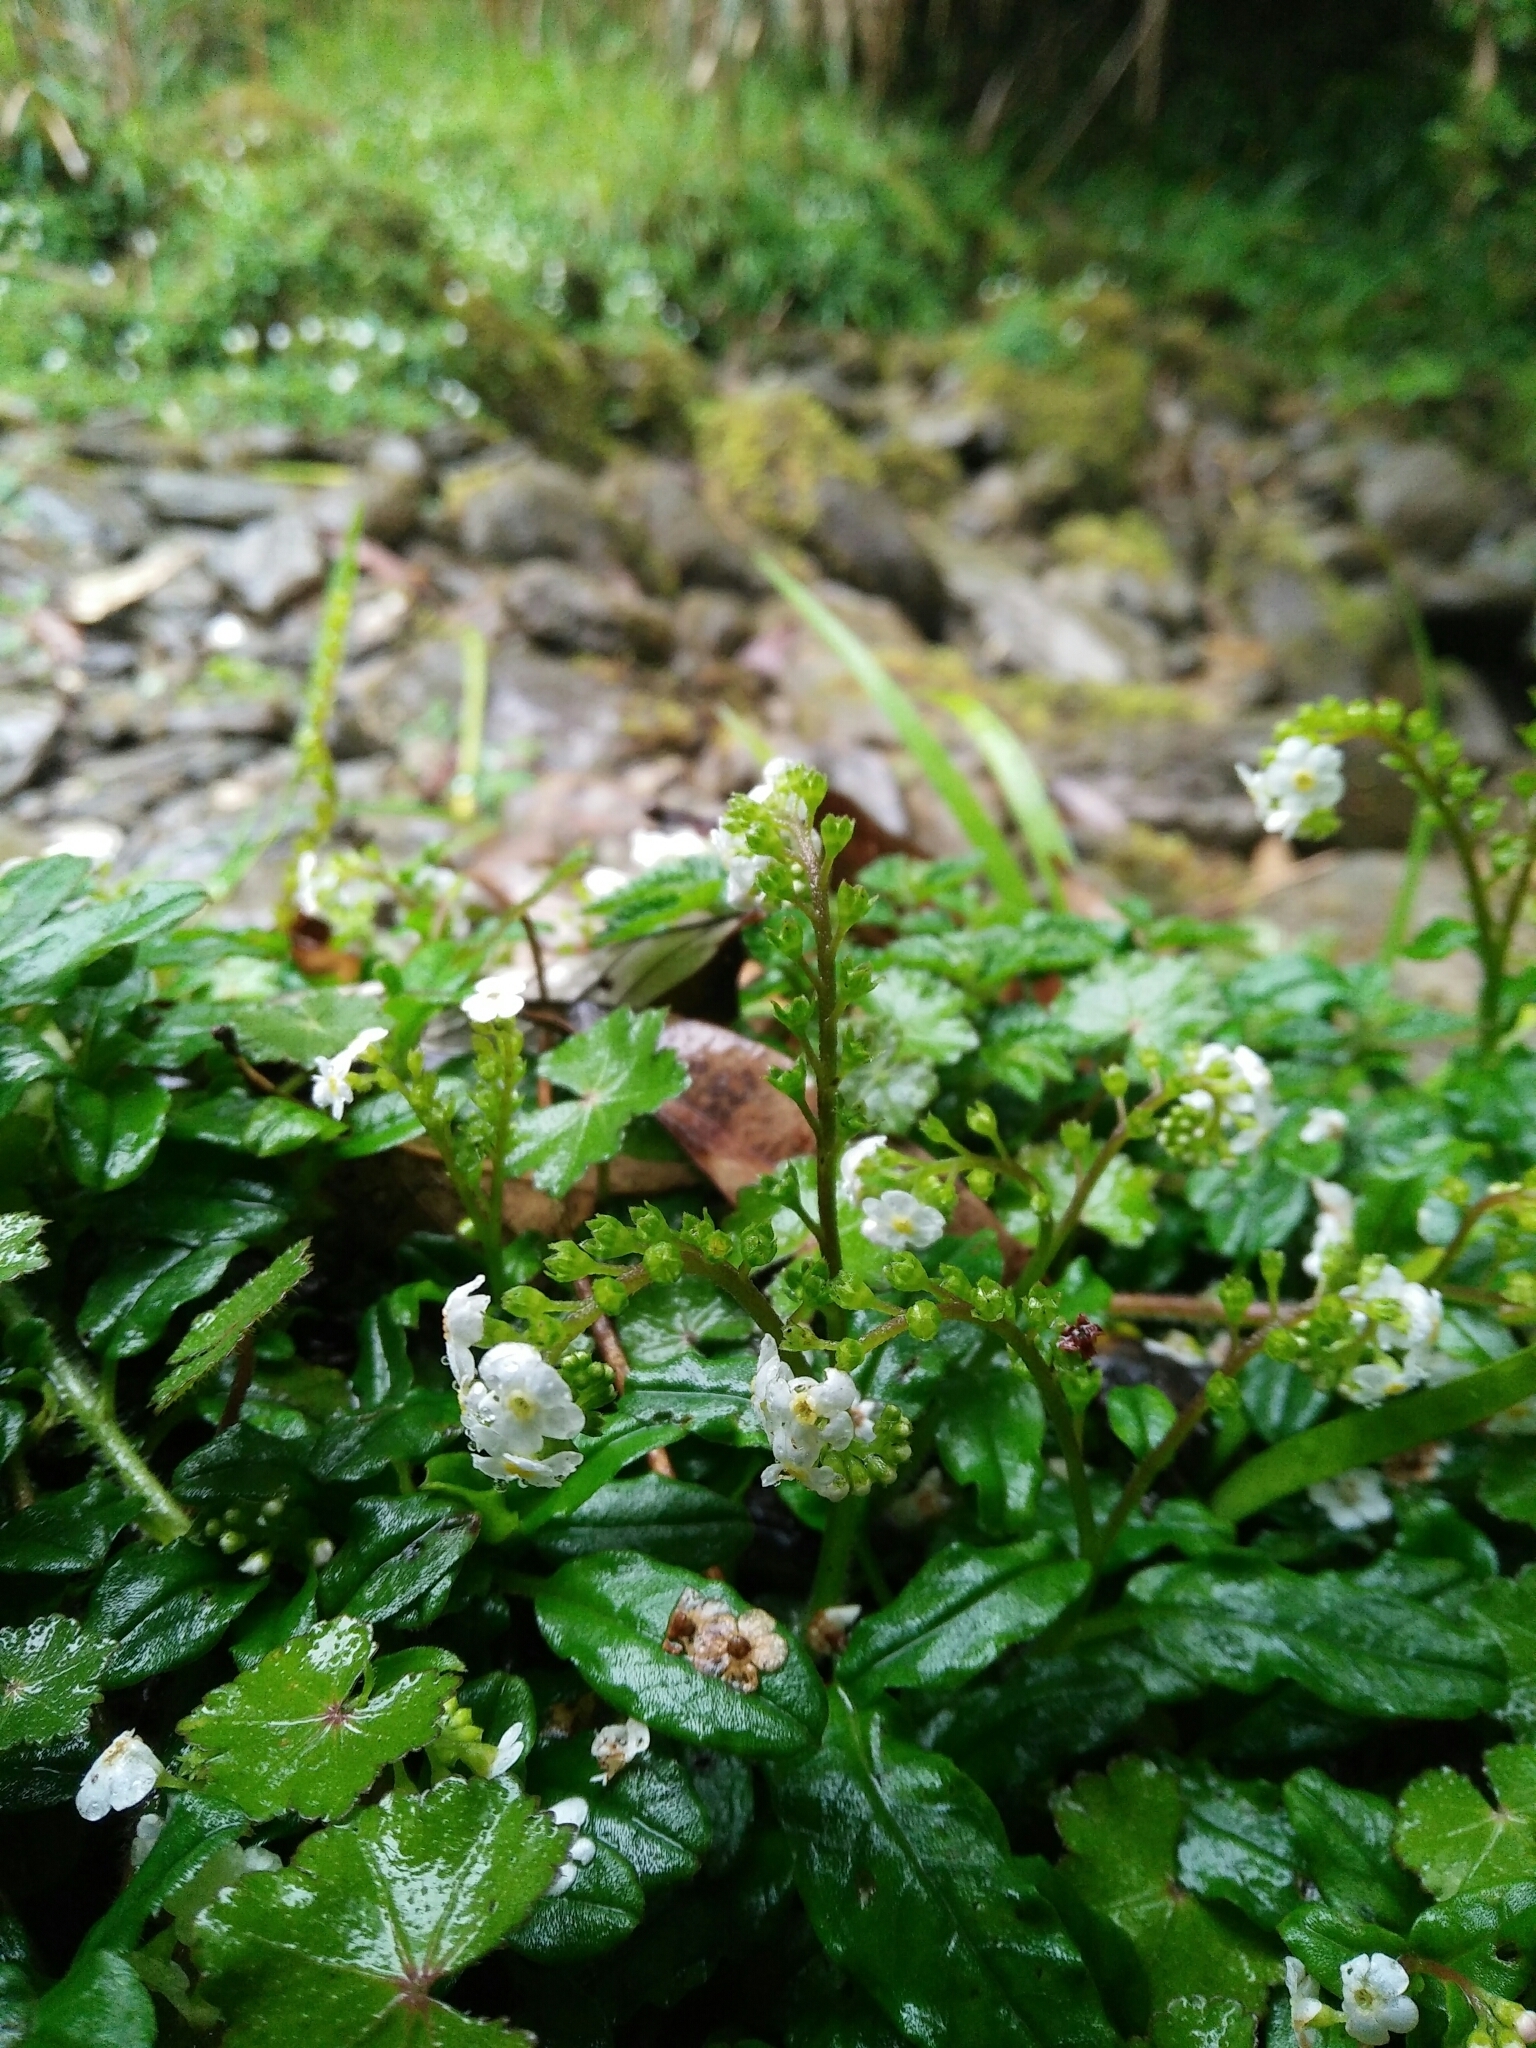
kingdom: Plantae
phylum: Tracheophyta
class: Magnoliopsida
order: Boraginales
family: Boraginaceae
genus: Trigonotis
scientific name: Trigonotis formosana
